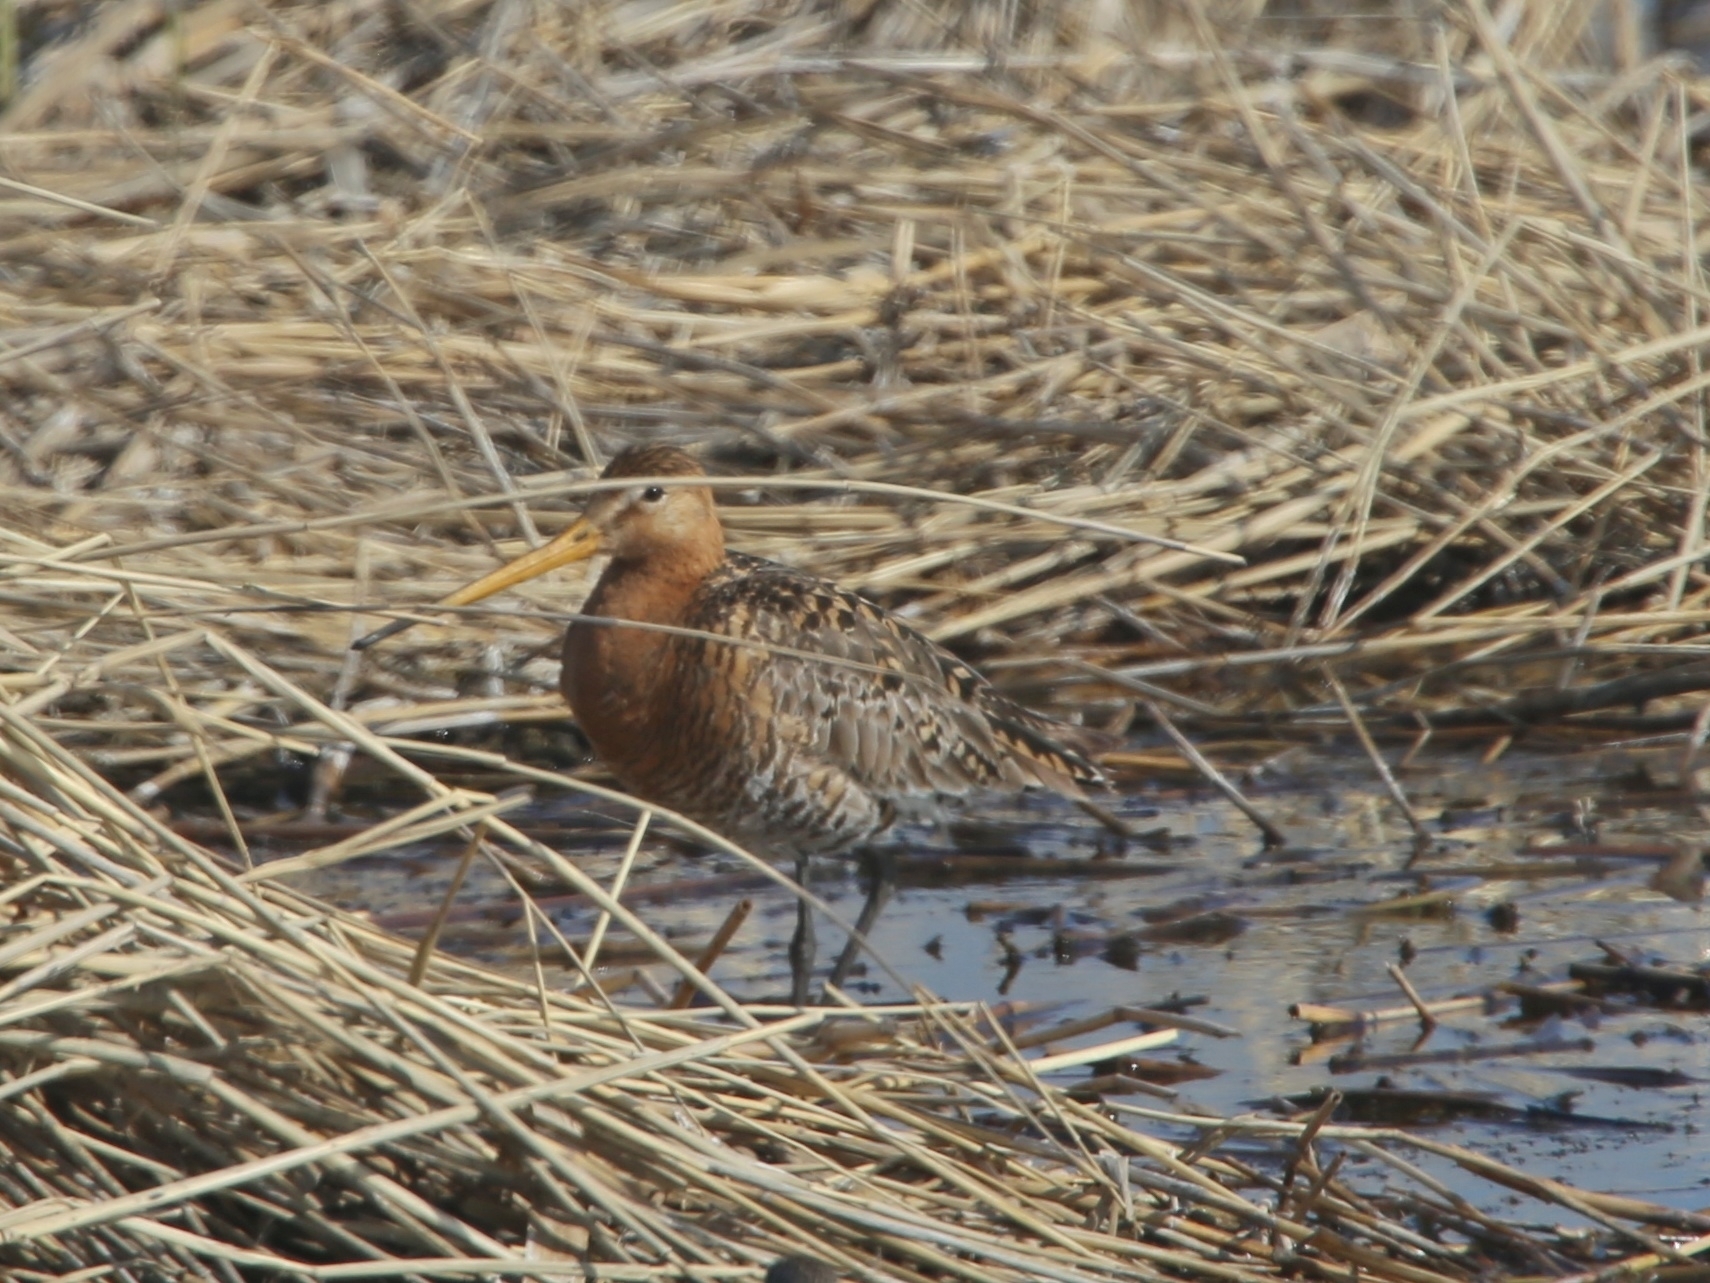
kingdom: Animalia
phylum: Chordata
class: Aves
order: Charadriiformes
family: Scolopacidae
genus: Limosa
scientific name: Limosa limosa
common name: Black-tailed godwit
